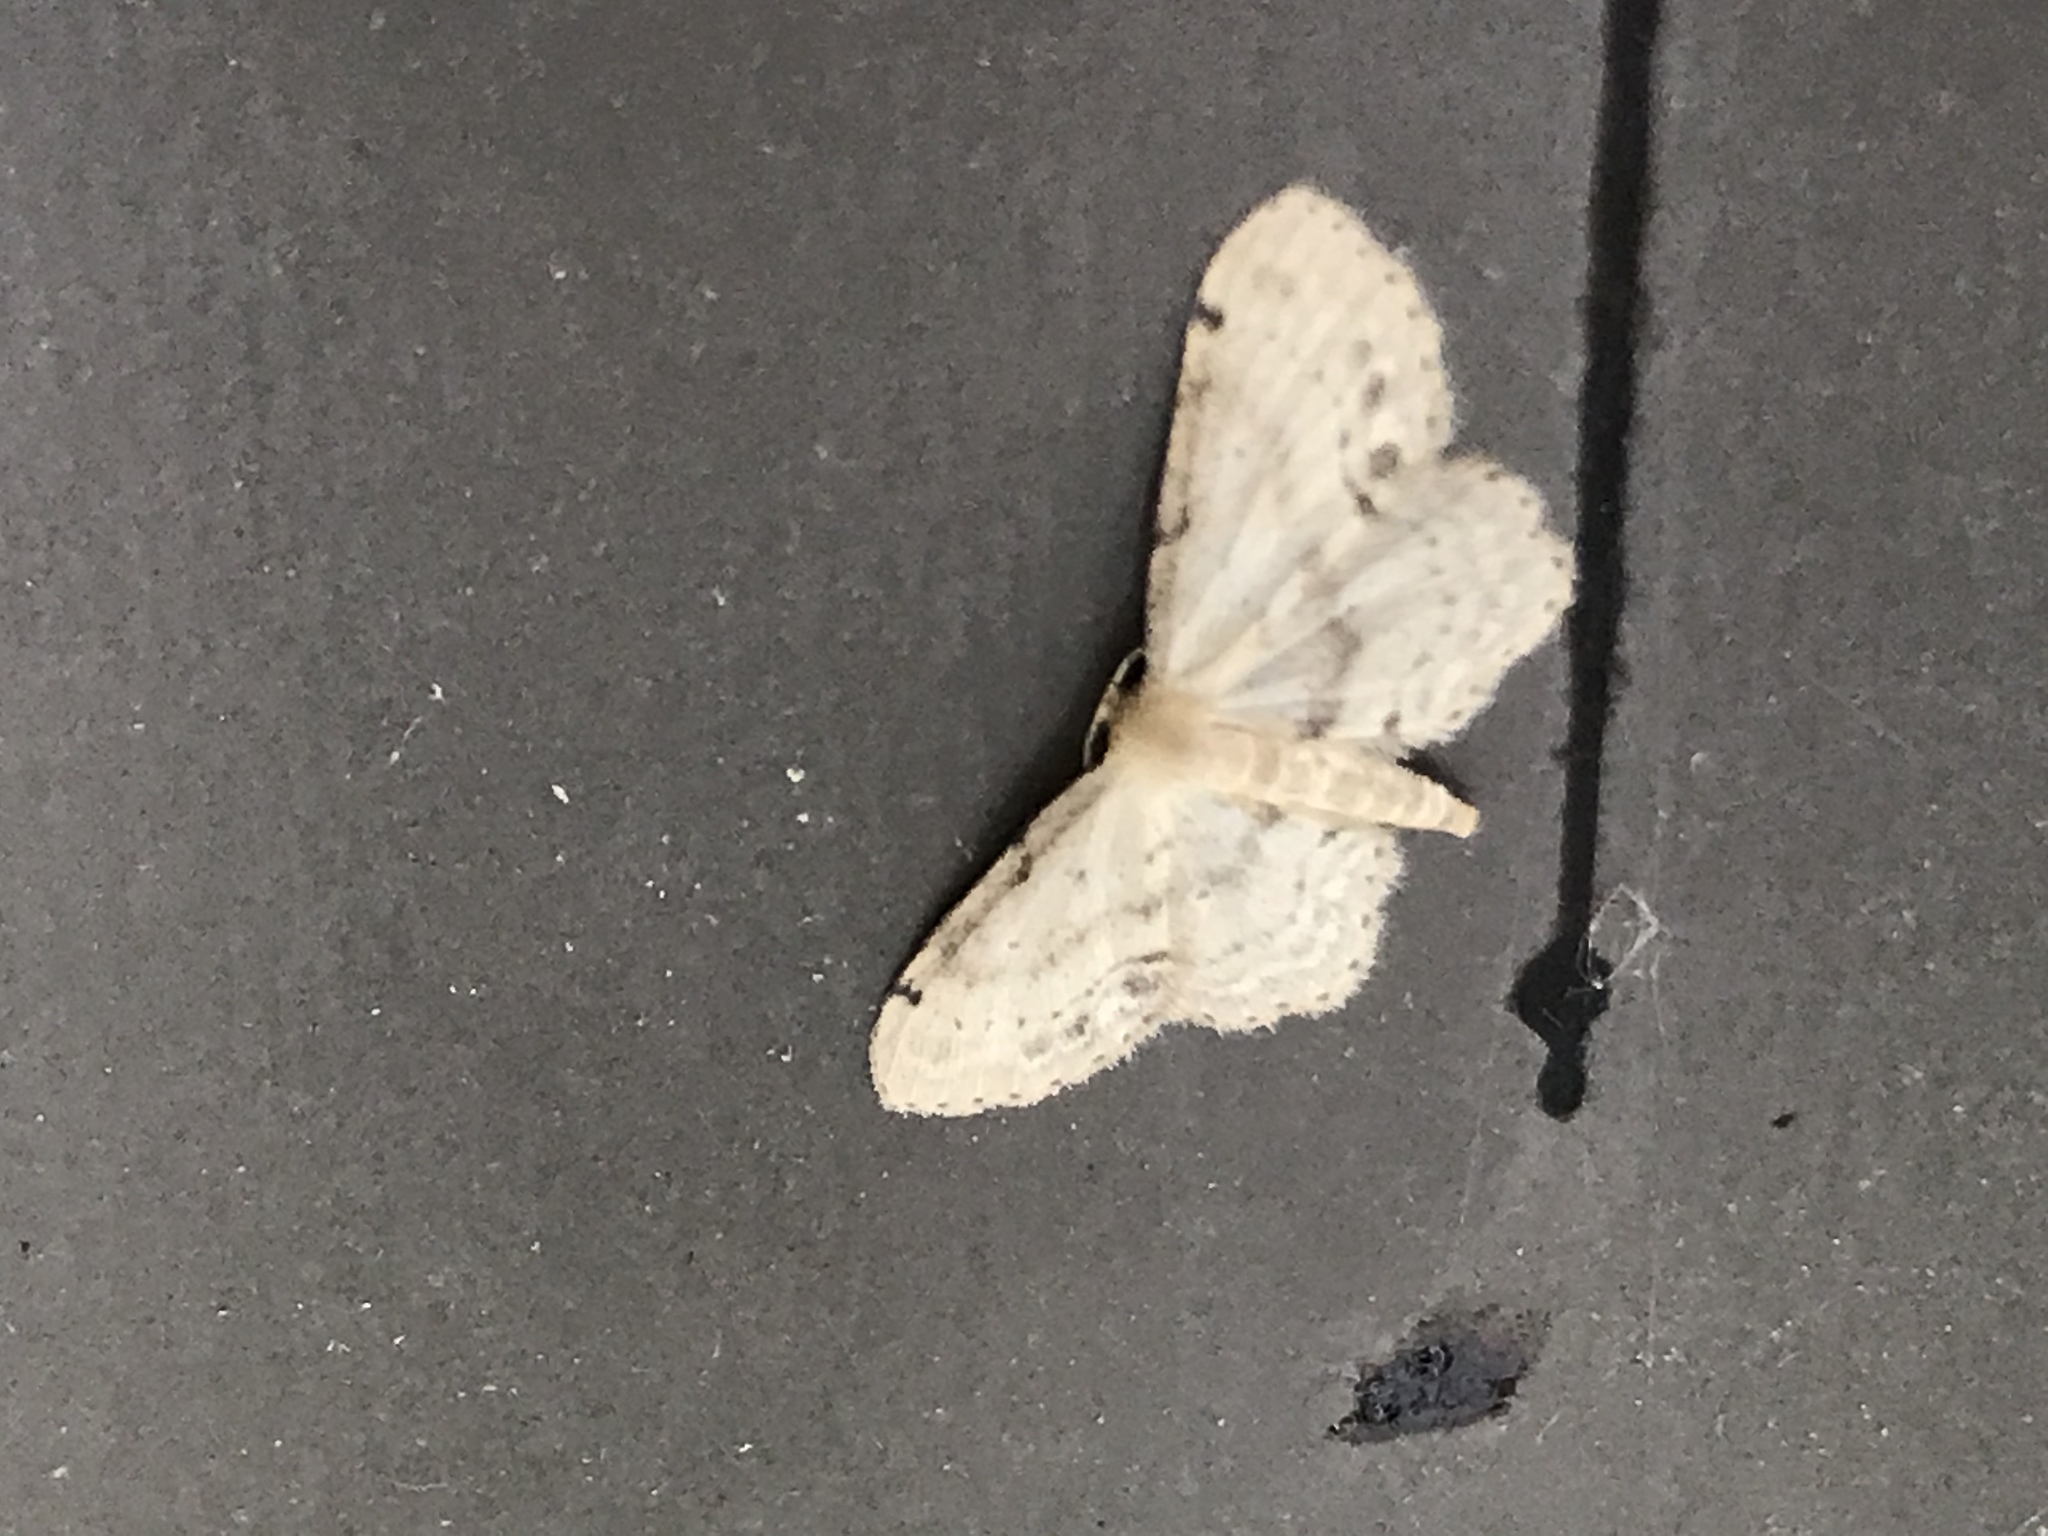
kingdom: Animalia
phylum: Arthropoda
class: Insecta
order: Lepidoptera
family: Geometridae
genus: Idaea
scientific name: Idaea dimidiata
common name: Single-dotted wave
